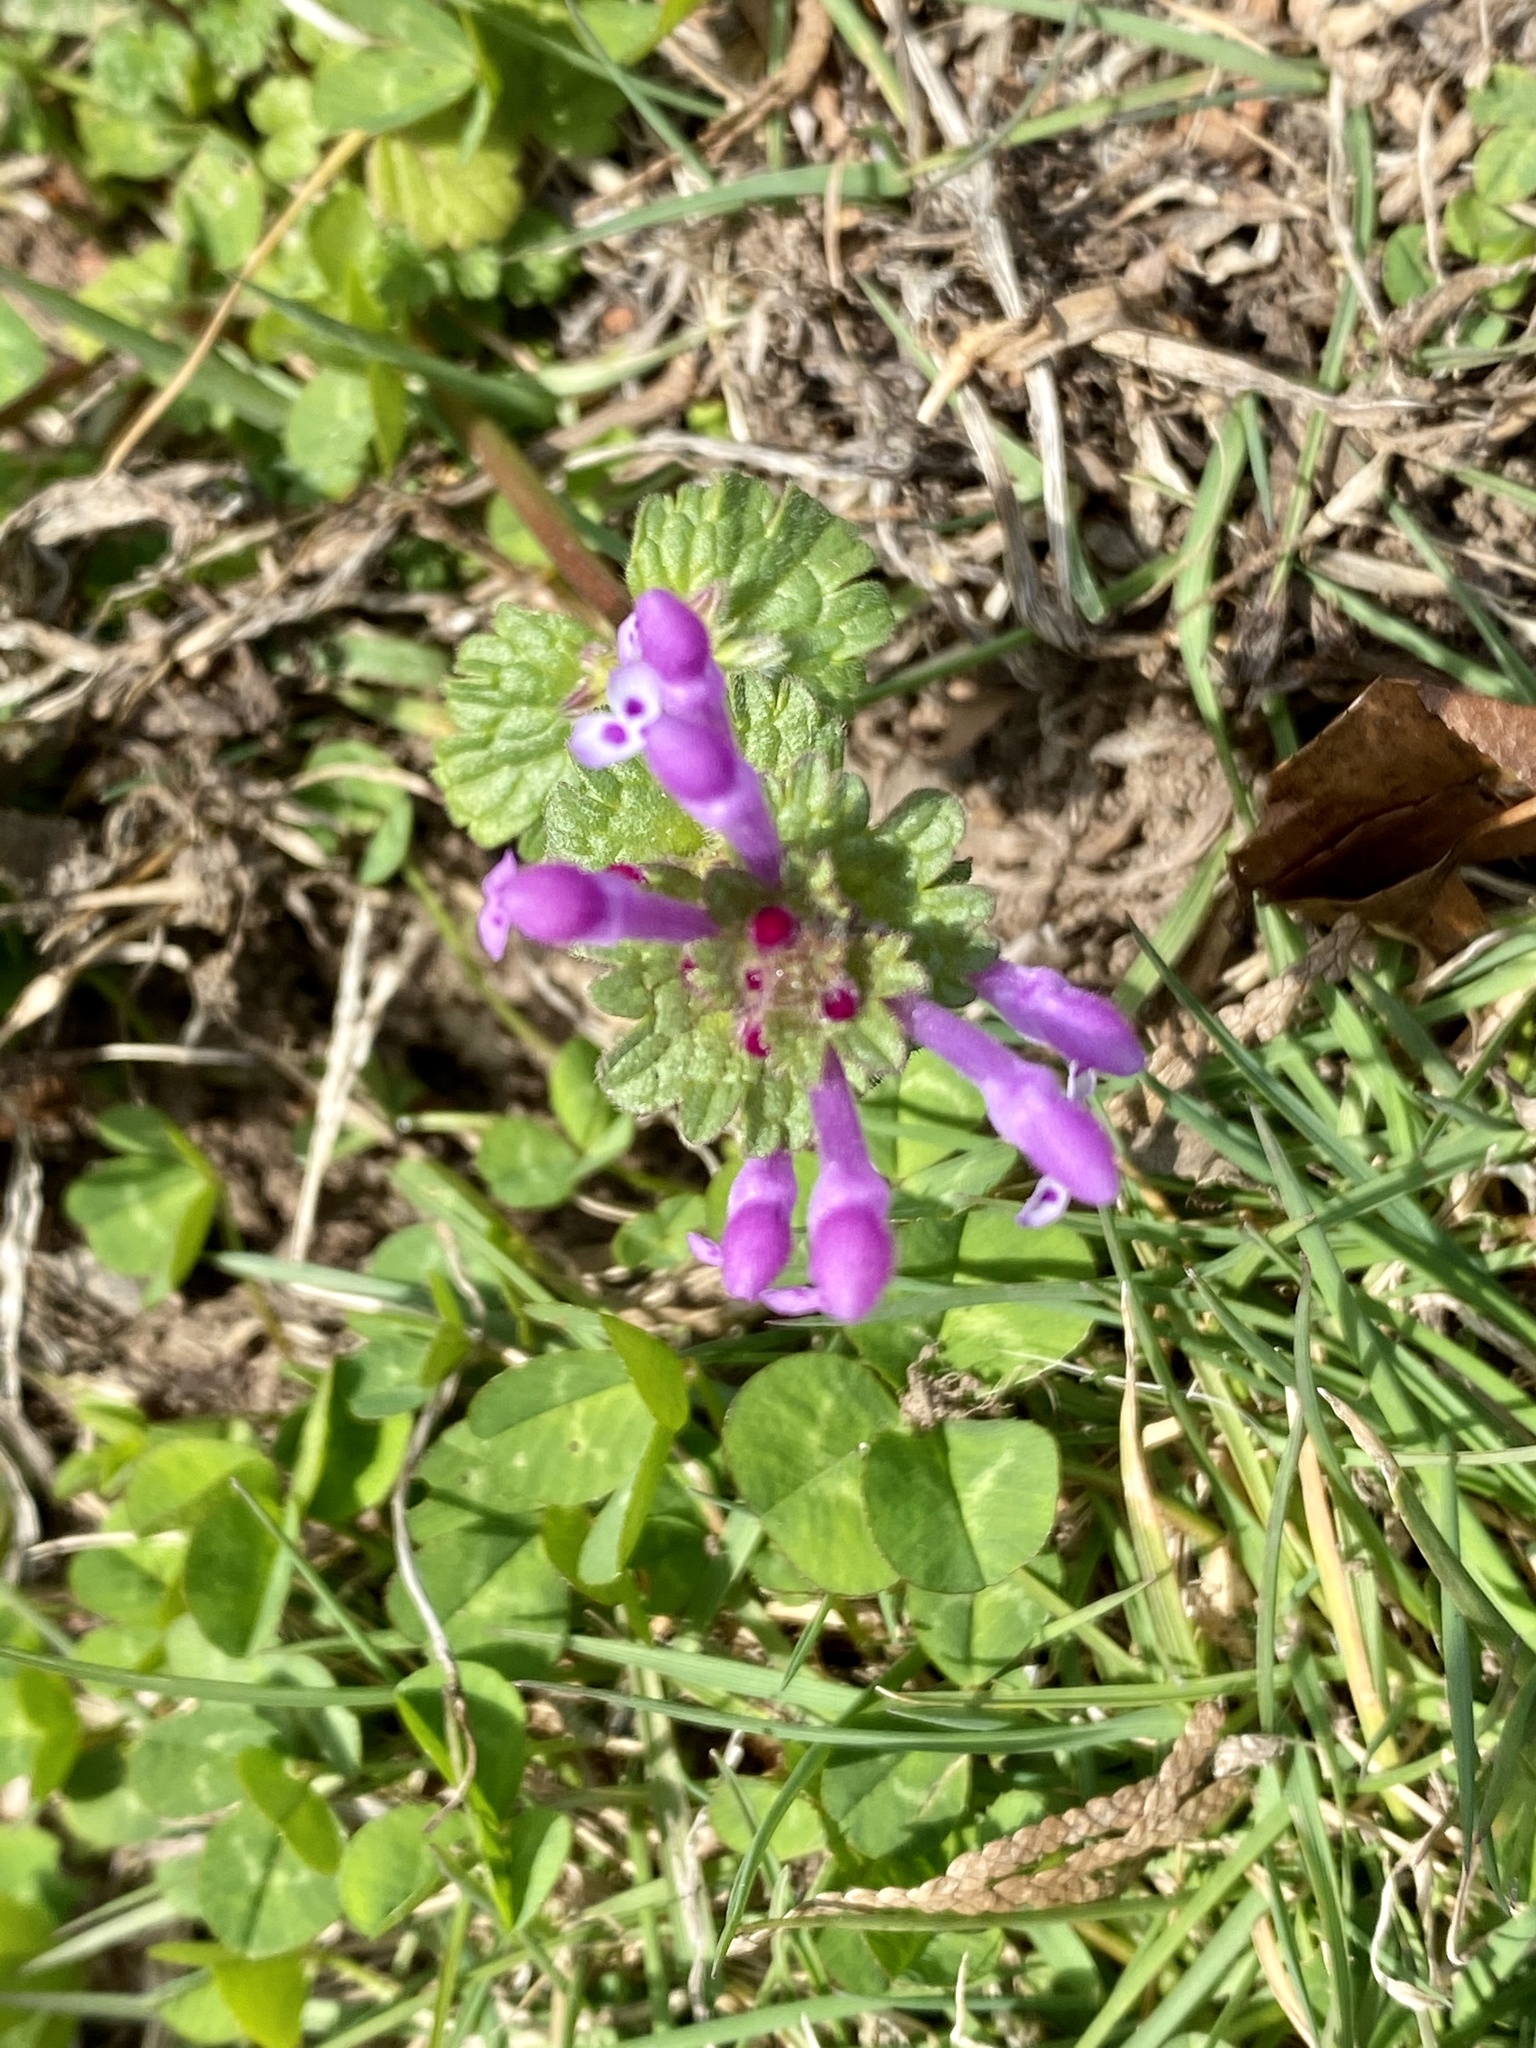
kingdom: Plantae
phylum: Tracheophyta
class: Magnoliopsida
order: Lamiales
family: Lamiaceae
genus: Lamium
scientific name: Lamium amplexicaule
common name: Henbit dead-nettle
